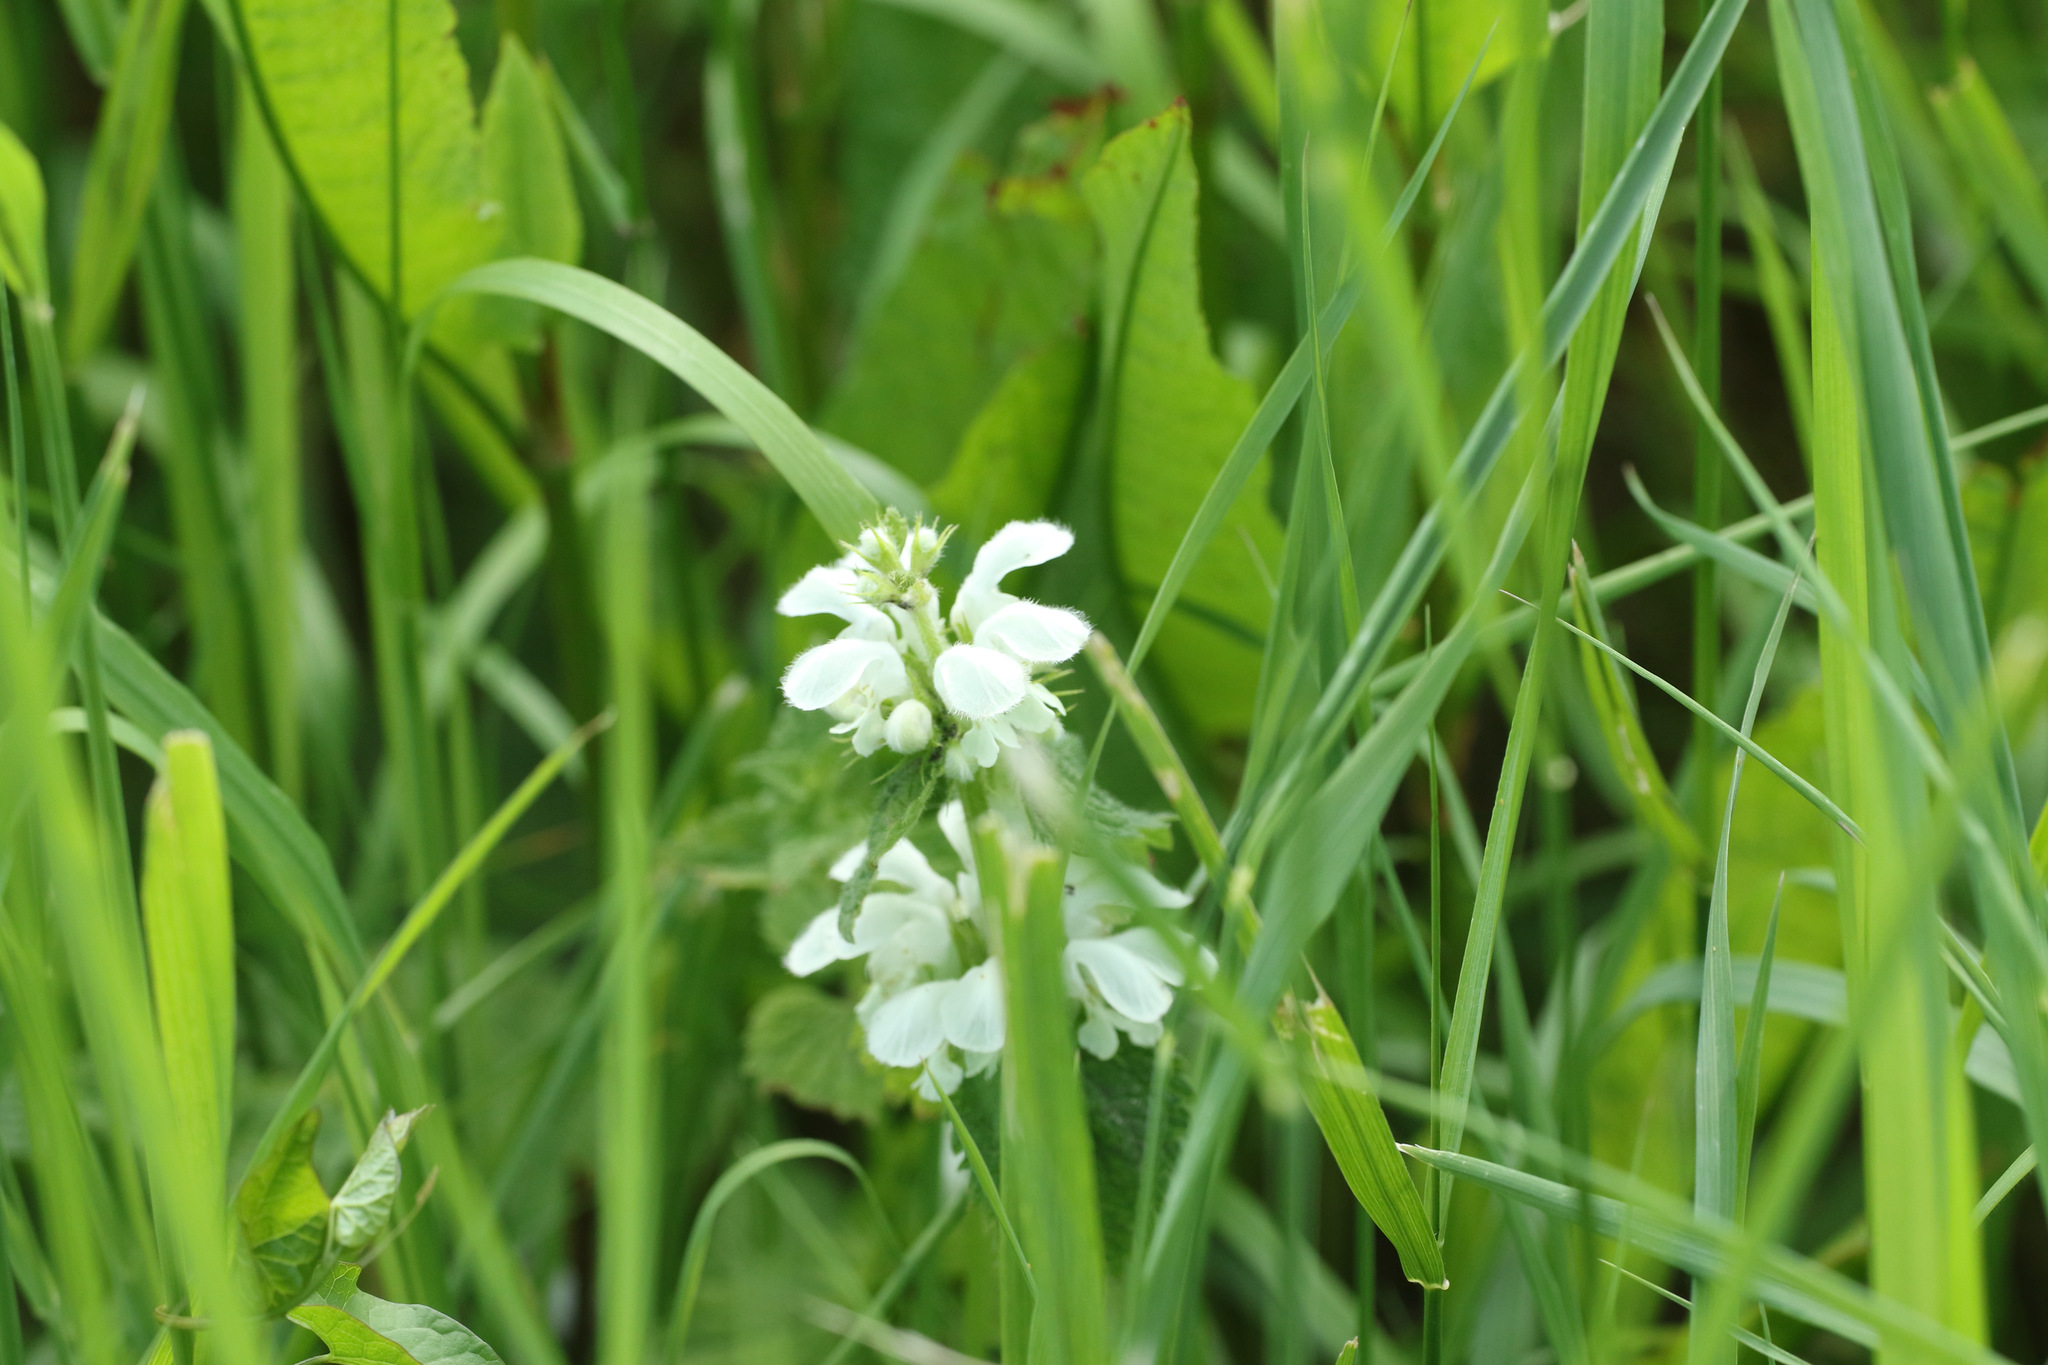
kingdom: Plantae
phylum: Tracheophyta
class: Magnoliopsida
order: Lamiales
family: Lamiaceae
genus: Lamium
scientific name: Lamium album
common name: White dead-nettle
